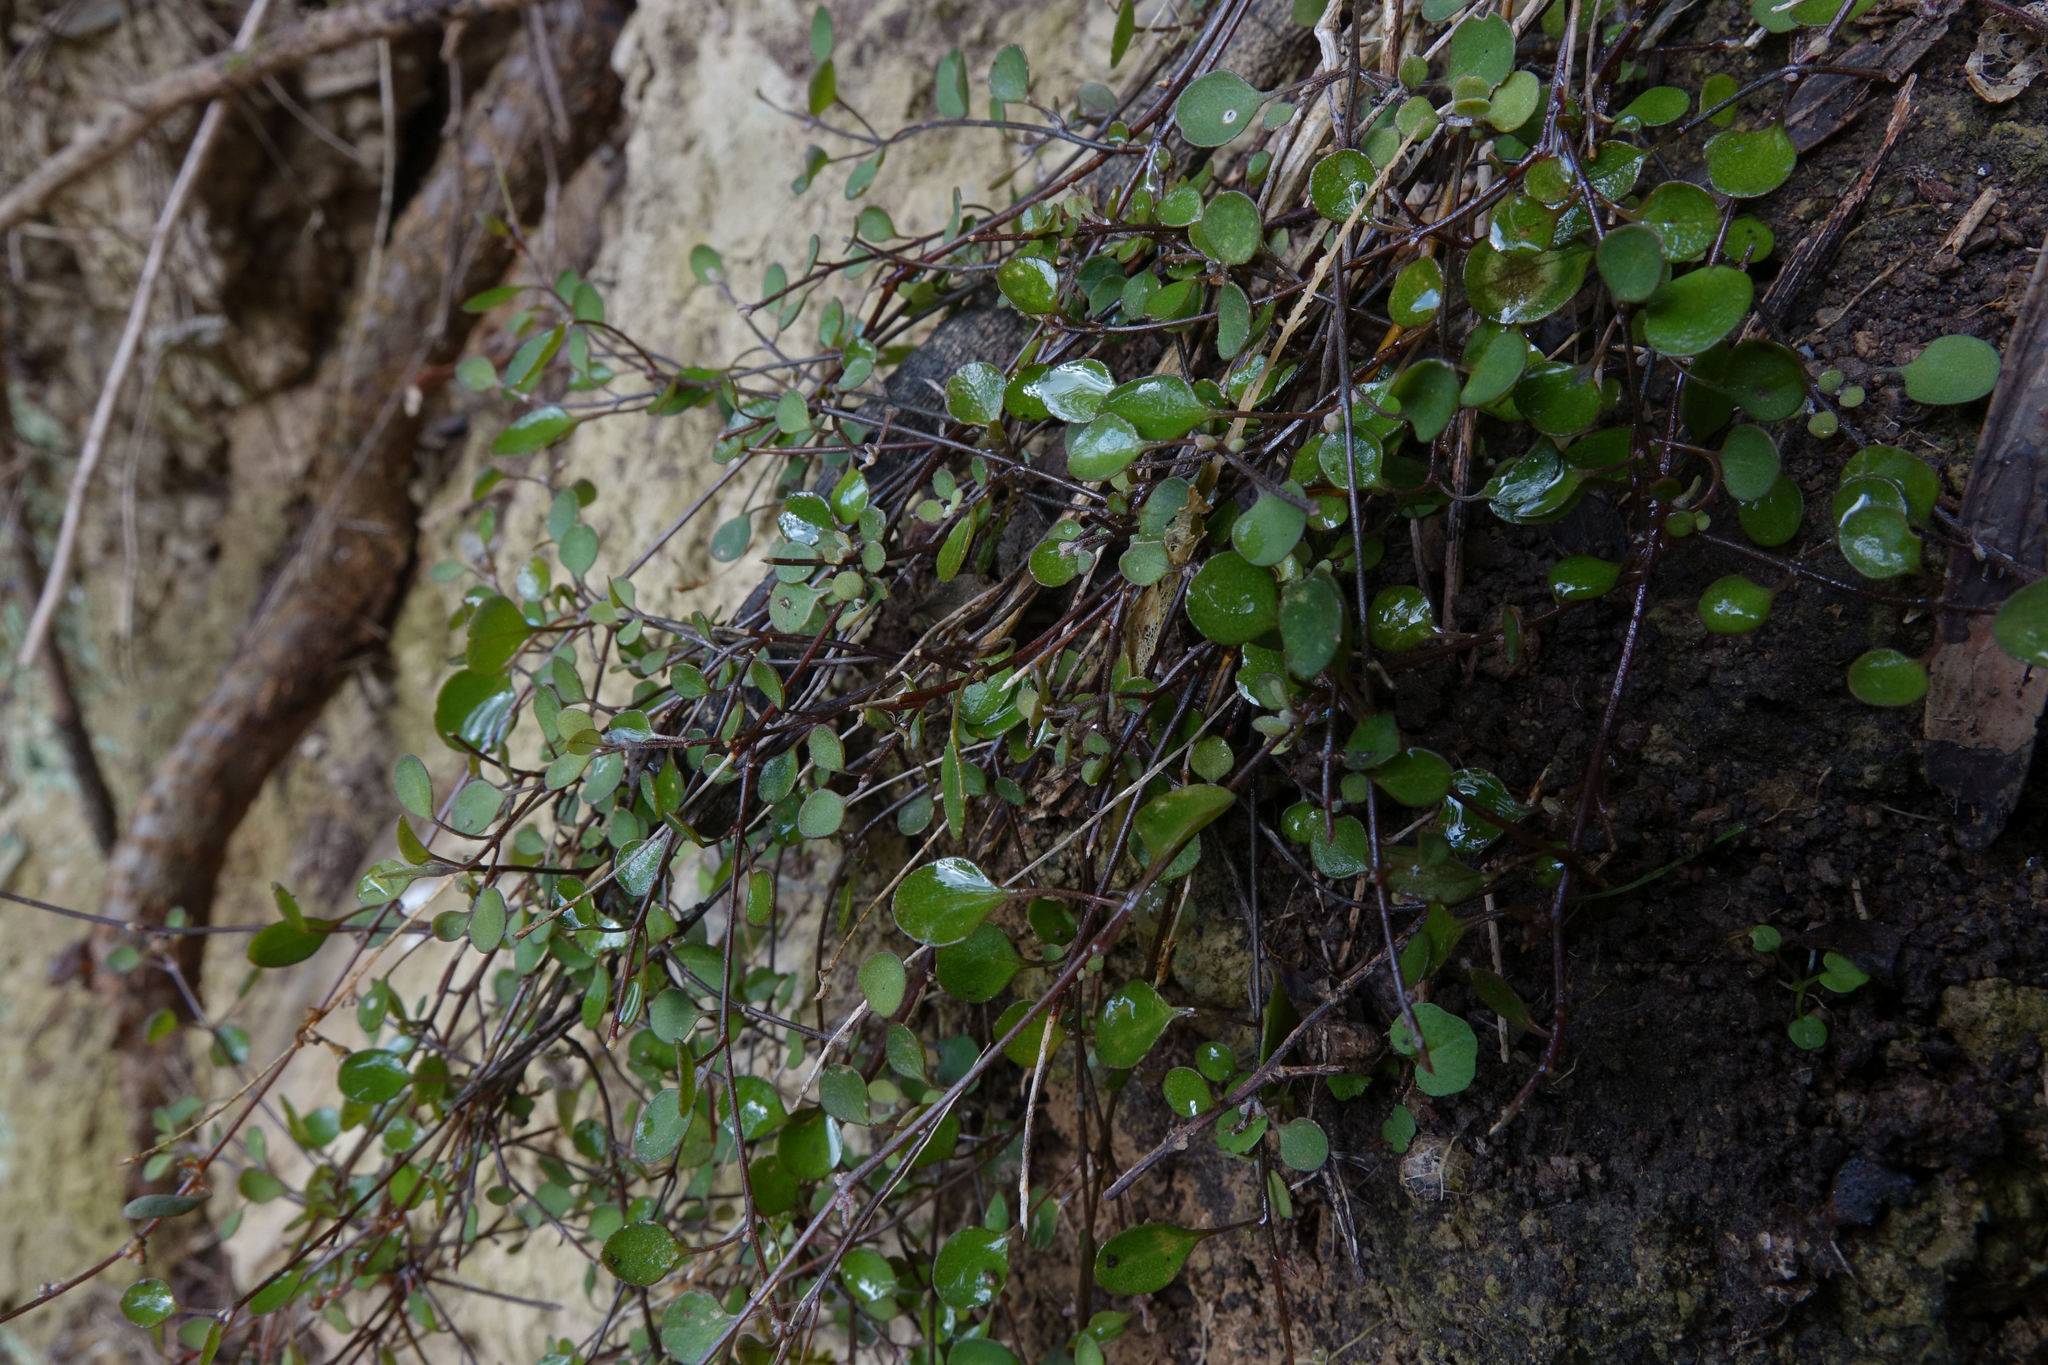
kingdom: Plantae
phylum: Tracheophyta
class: Magnoliopsida
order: Caryophyllales
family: Amaranthaceae
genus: Chenopodium
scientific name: Chenopodium allanii
